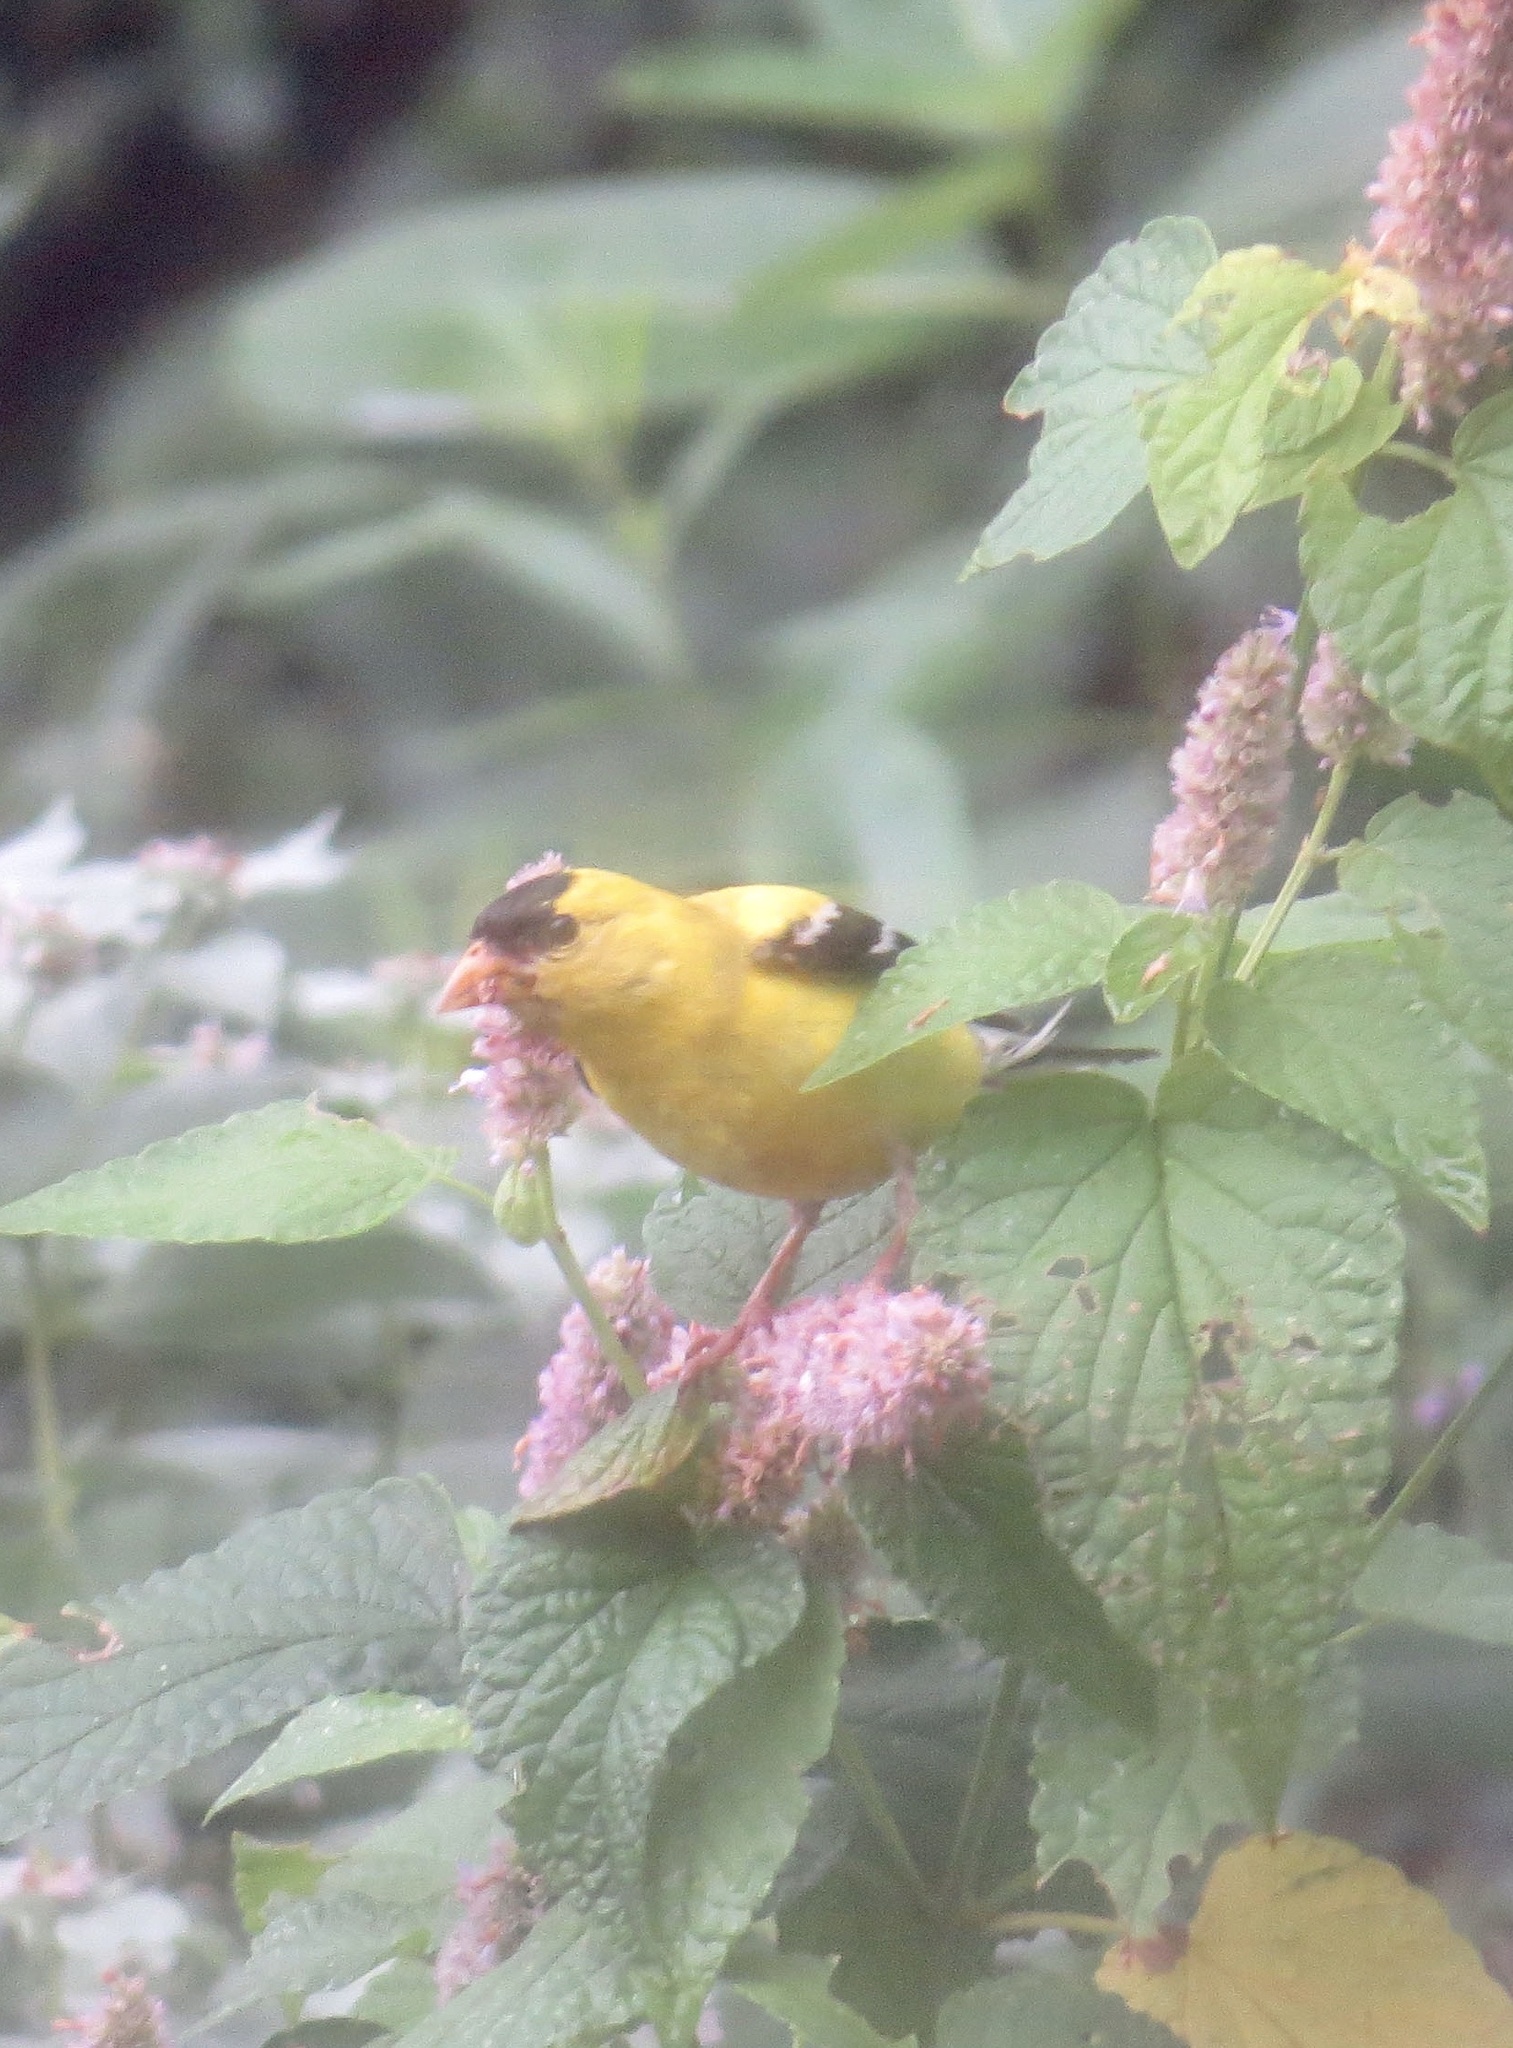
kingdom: Animalia
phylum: Chordata
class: Aves
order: Passeriformes
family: Fringillidae
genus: Spinus
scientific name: Spinus tristis
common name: American goldfinch
